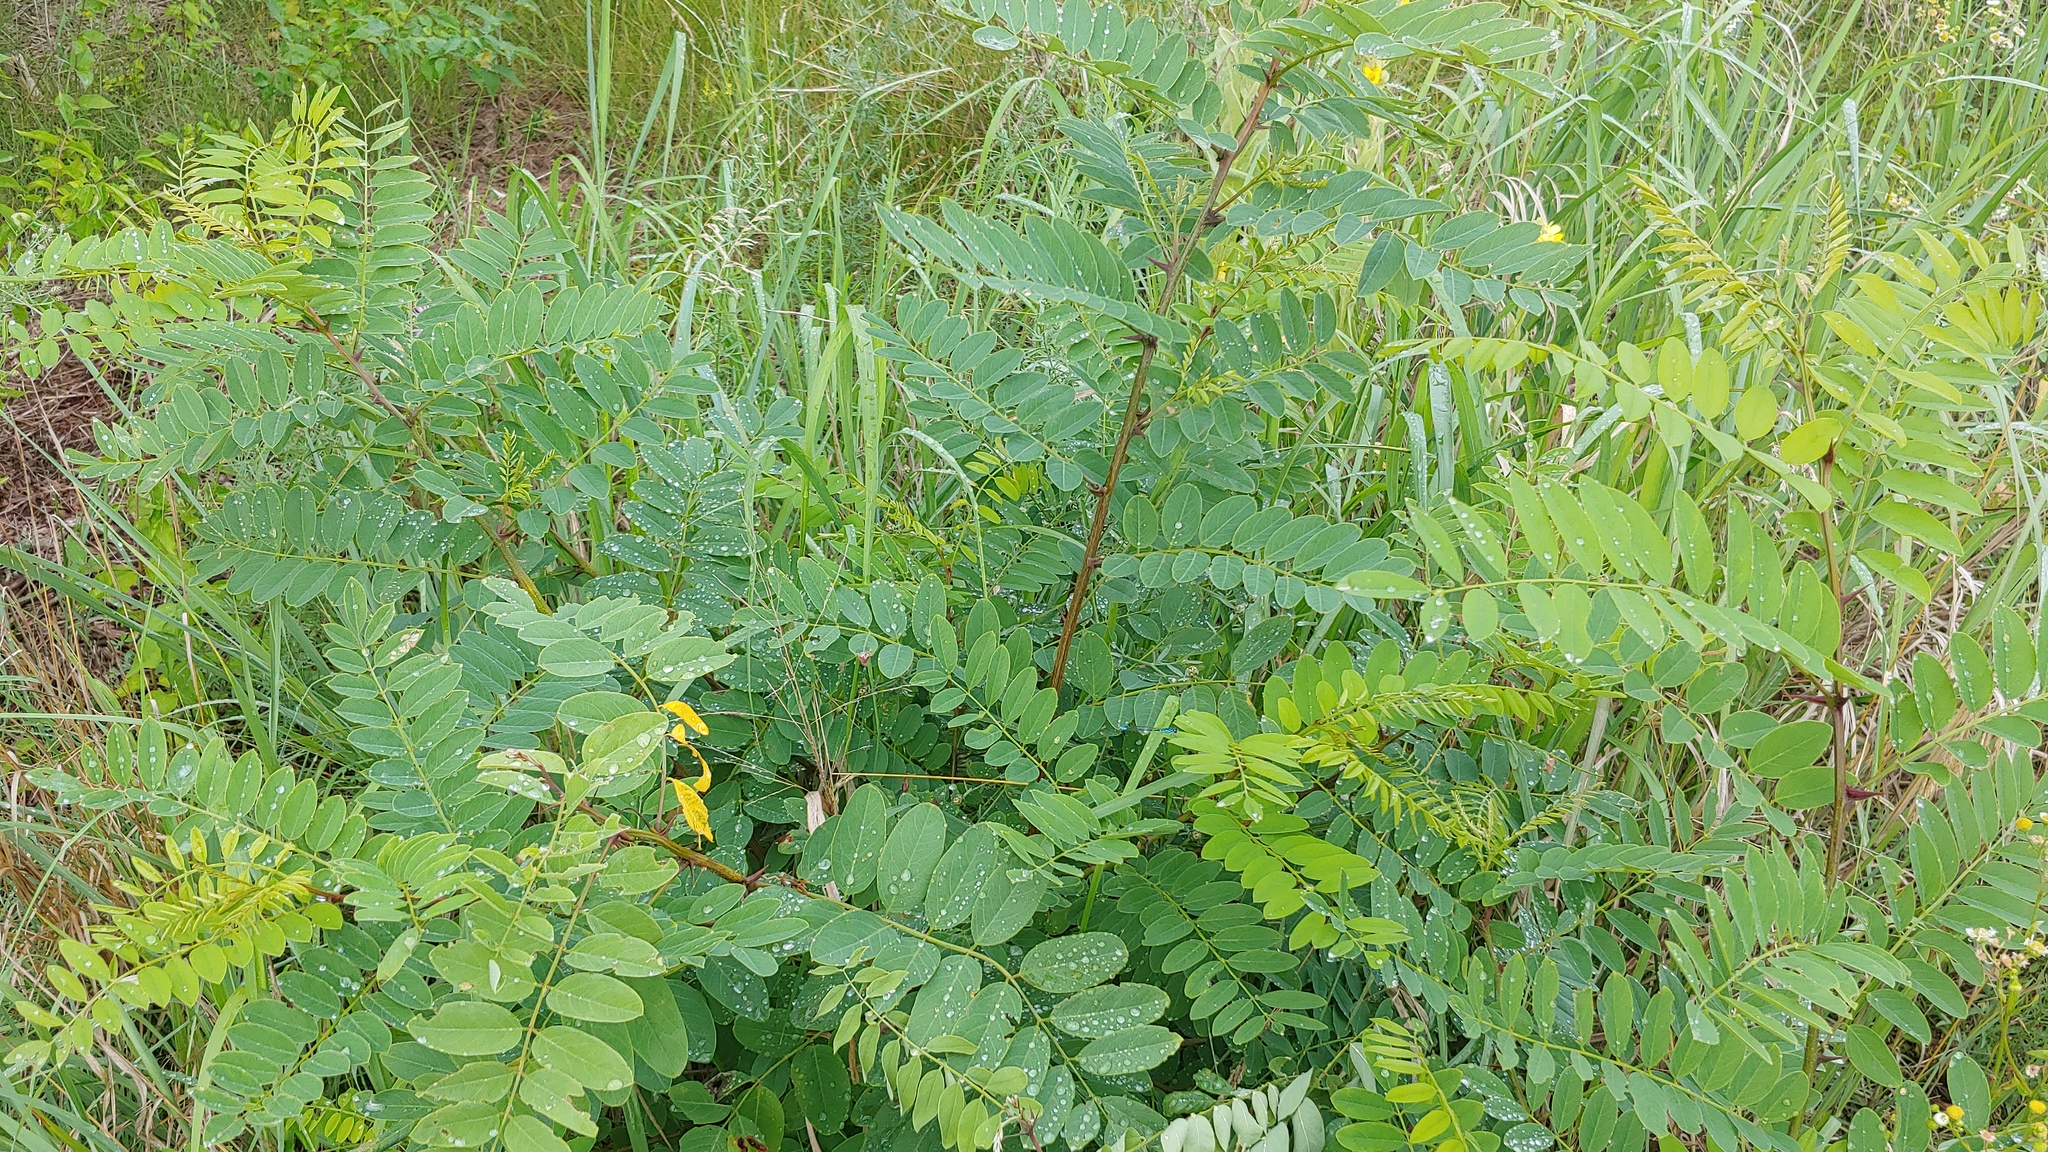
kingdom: Plantae
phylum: Tracheophyta
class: Magnoliopsida
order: Fabales
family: Fabaceae
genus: Robinia
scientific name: Robinia pseudoacacia
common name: Black locust
